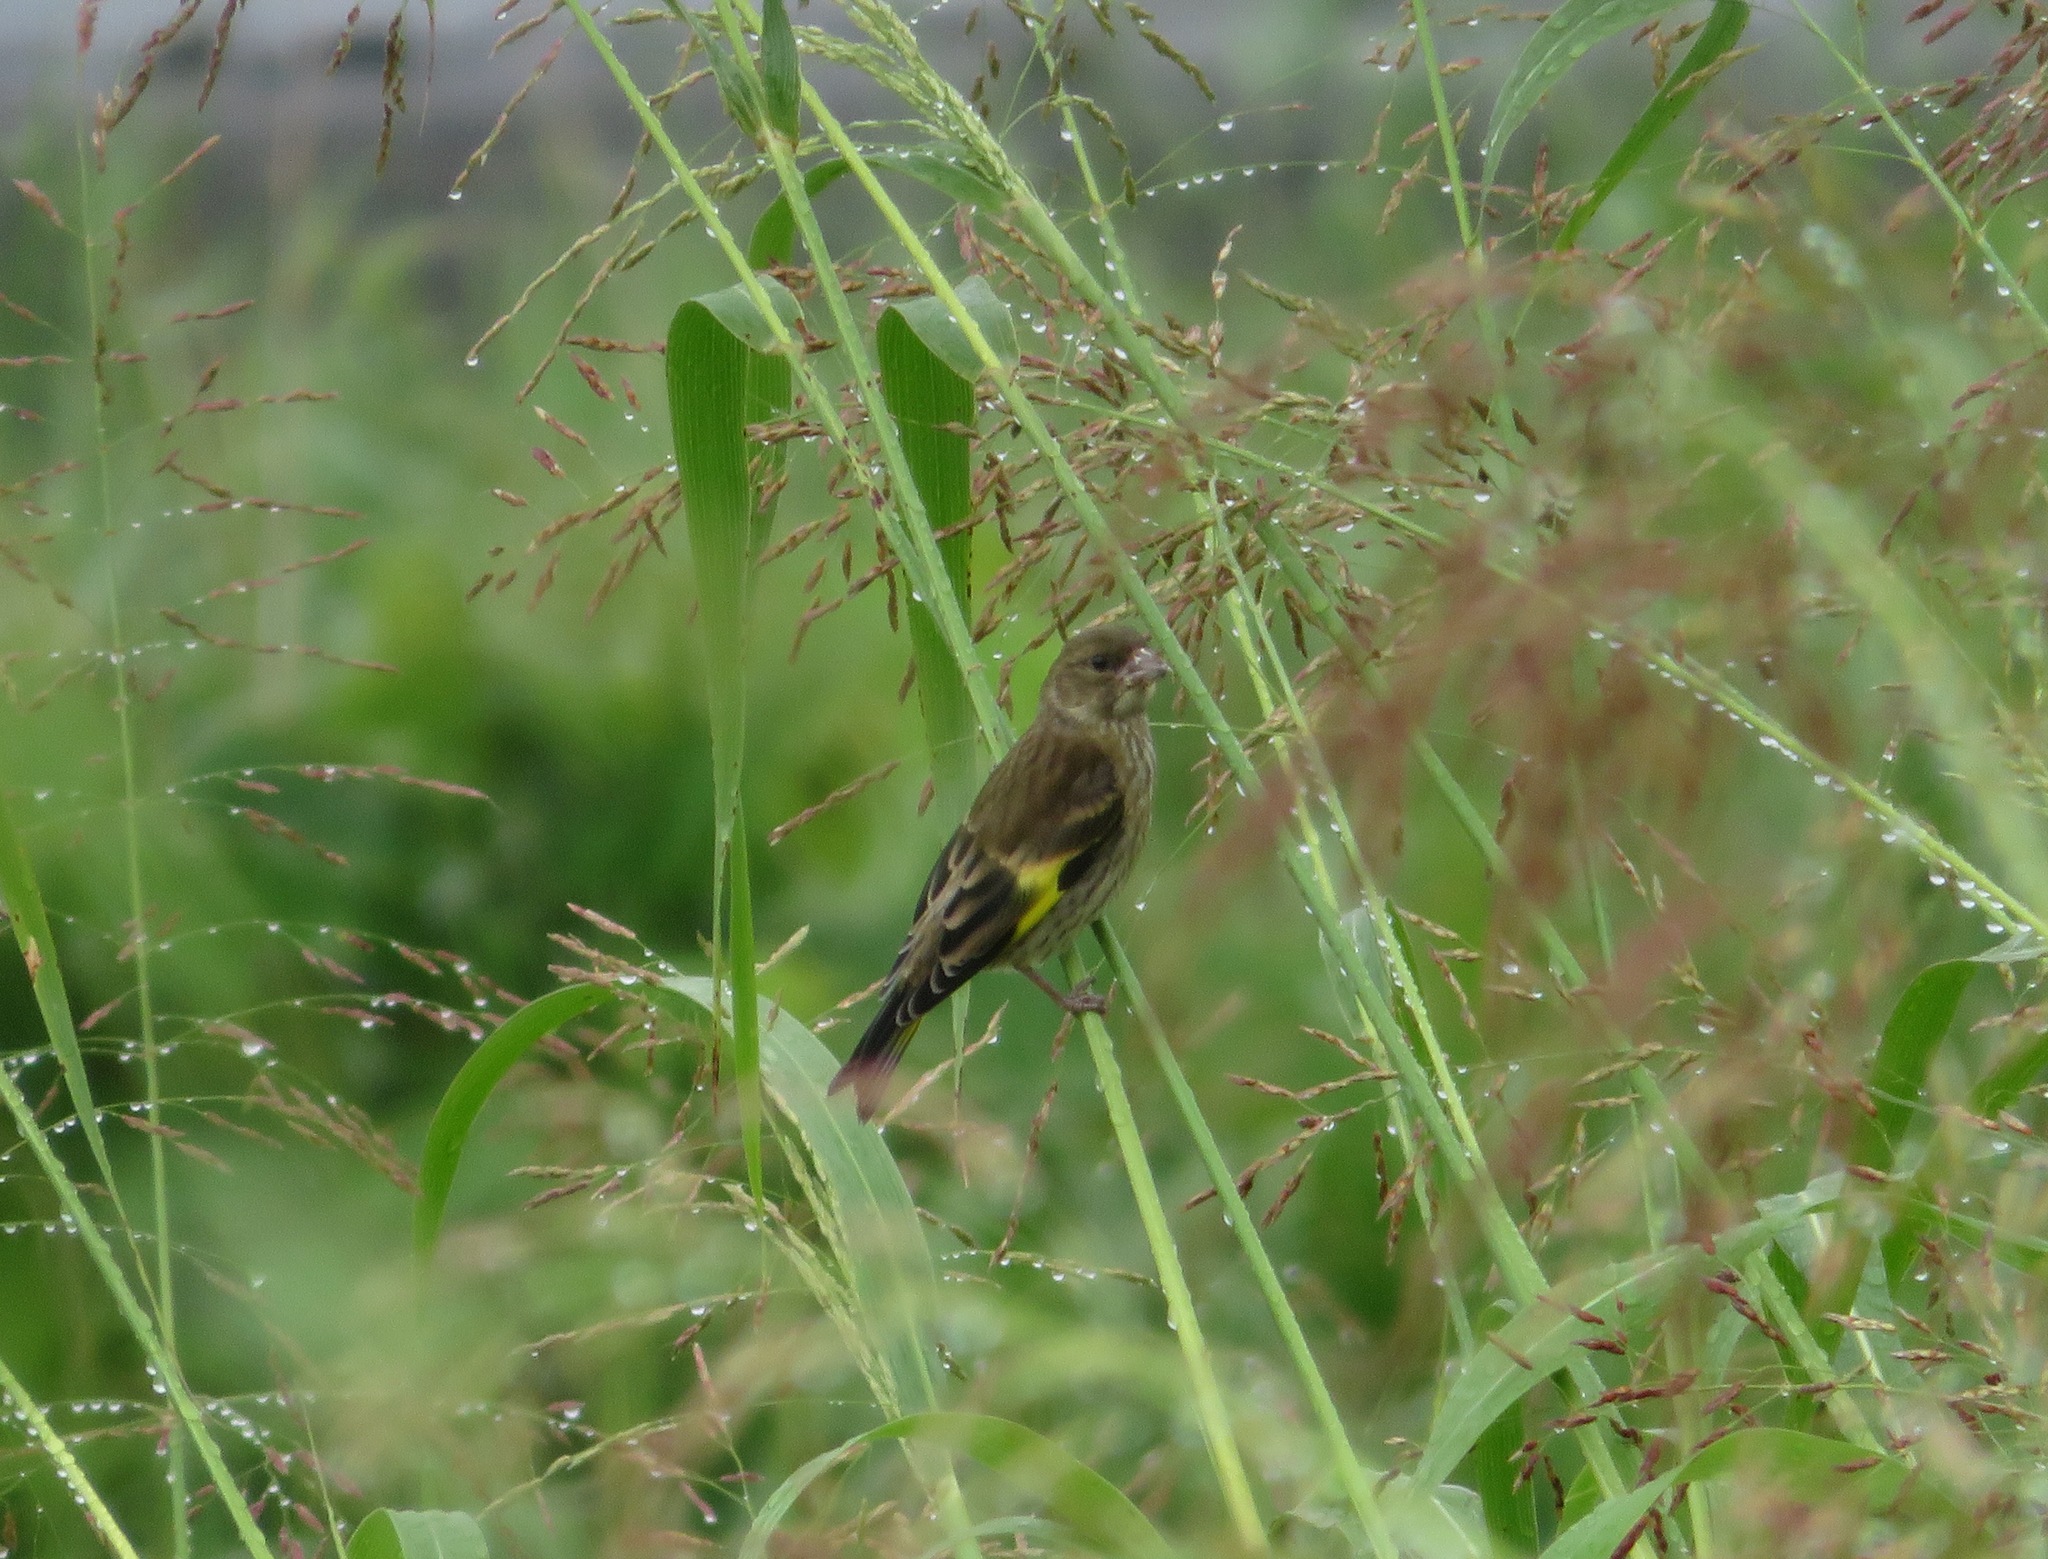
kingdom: Plantae
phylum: Tracheophyta
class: Liliopsida
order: Poales
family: Poaceae
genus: Chloris
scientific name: Chloris sinica
